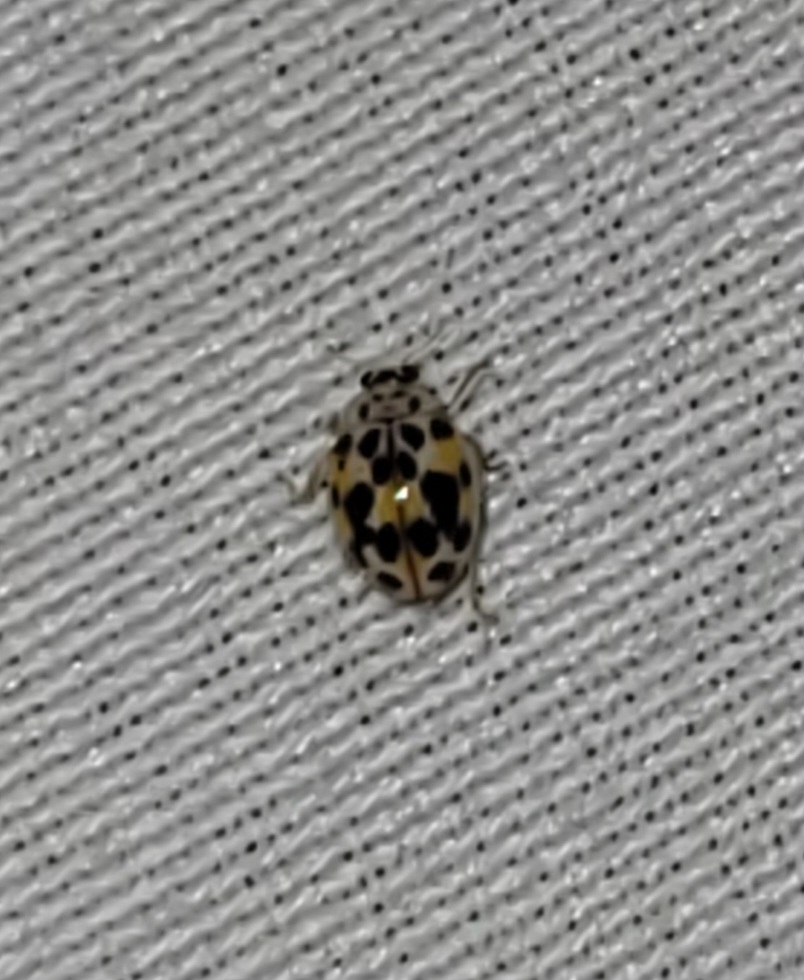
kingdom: Animalia
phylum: Arthropoda
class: Insecta
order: Coleoptera
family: Coccinellidae
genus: Psyllobora
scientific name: Psyllobora vigintimaculata
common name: Ladybird beetle
